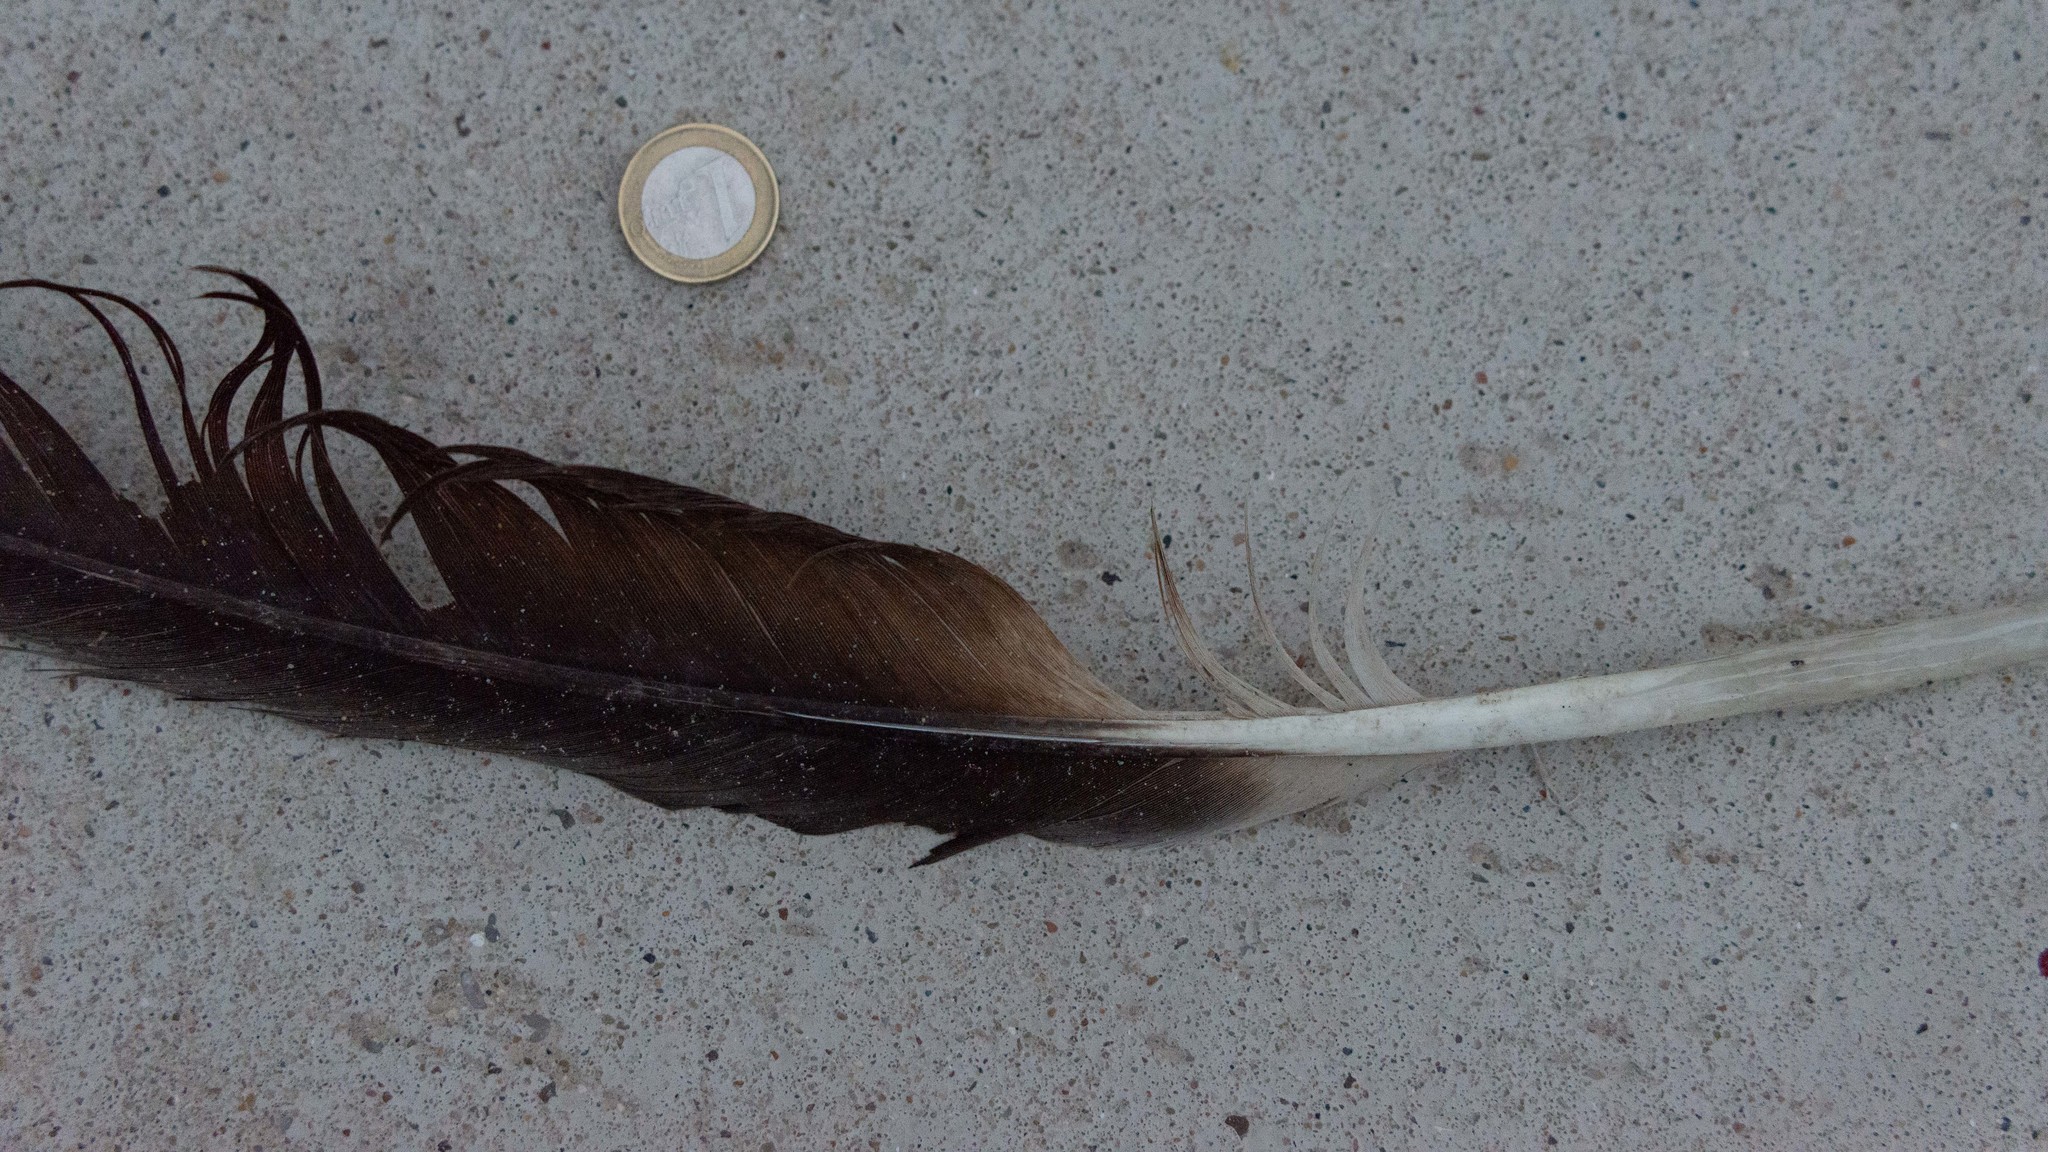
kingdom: Animalia
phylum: Chordata
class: Aves
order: Accipitriformes
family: Accipitridae
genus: Gyps
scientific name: Gyps fulvus
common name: Griffon vulture
